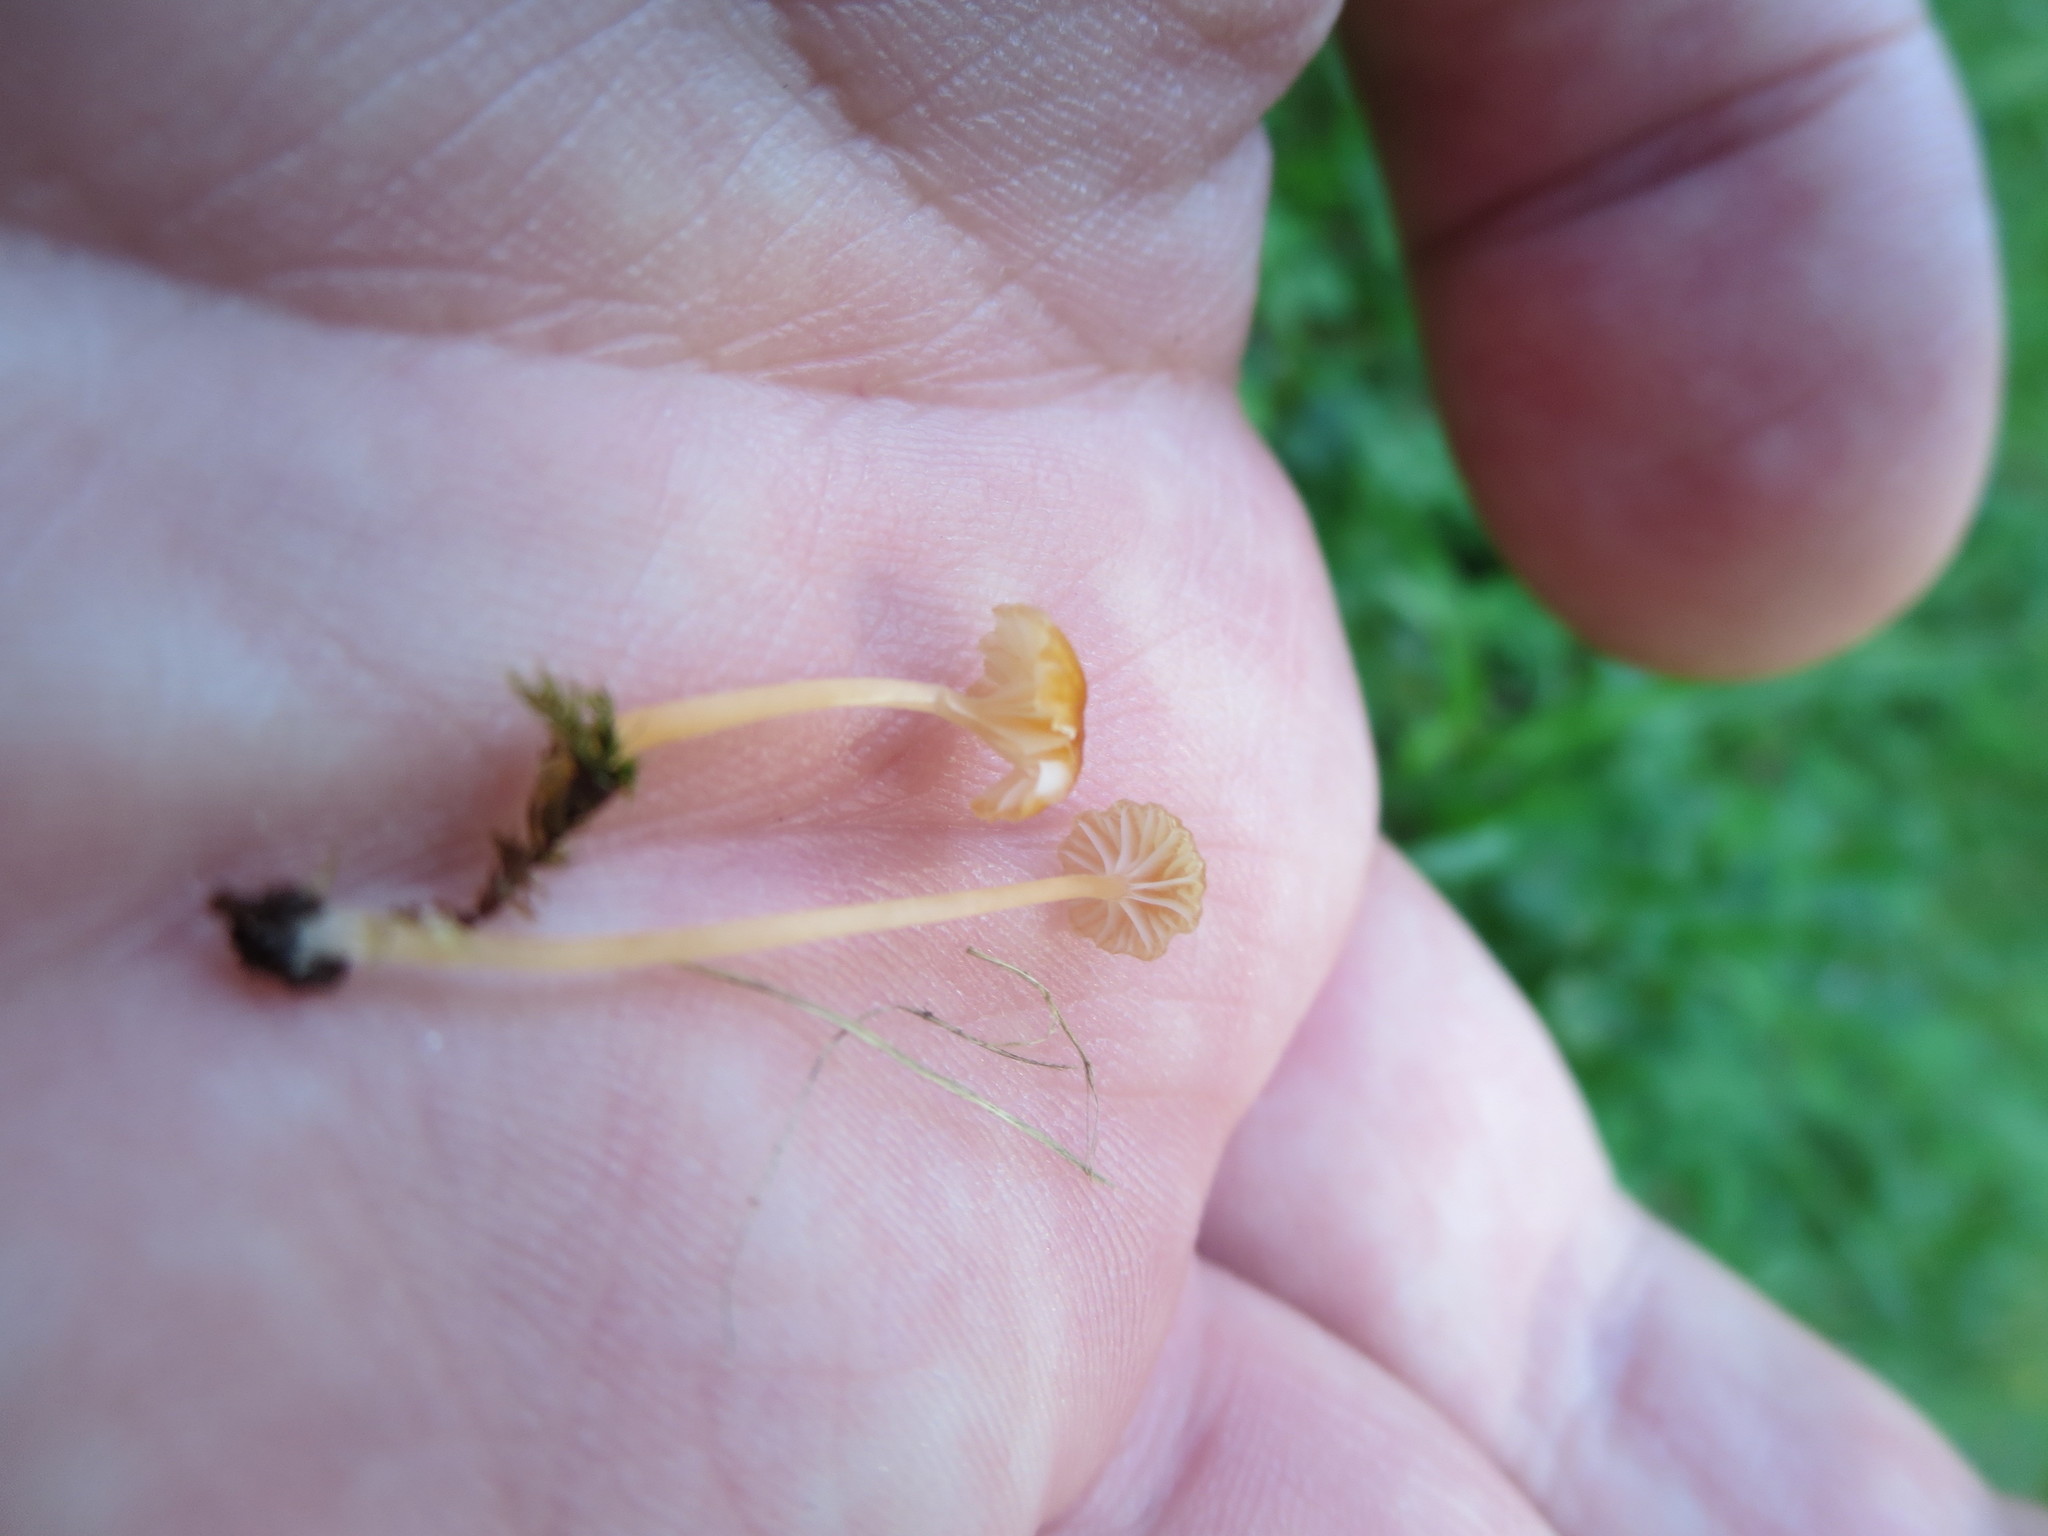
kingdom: Fungi
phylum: Basidiomycota
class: Agaricomycetes
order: Hymenochaetales
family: Rickenellaceae
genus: Rickenella
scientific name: Rickenella fibula
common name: Orange mosscap
